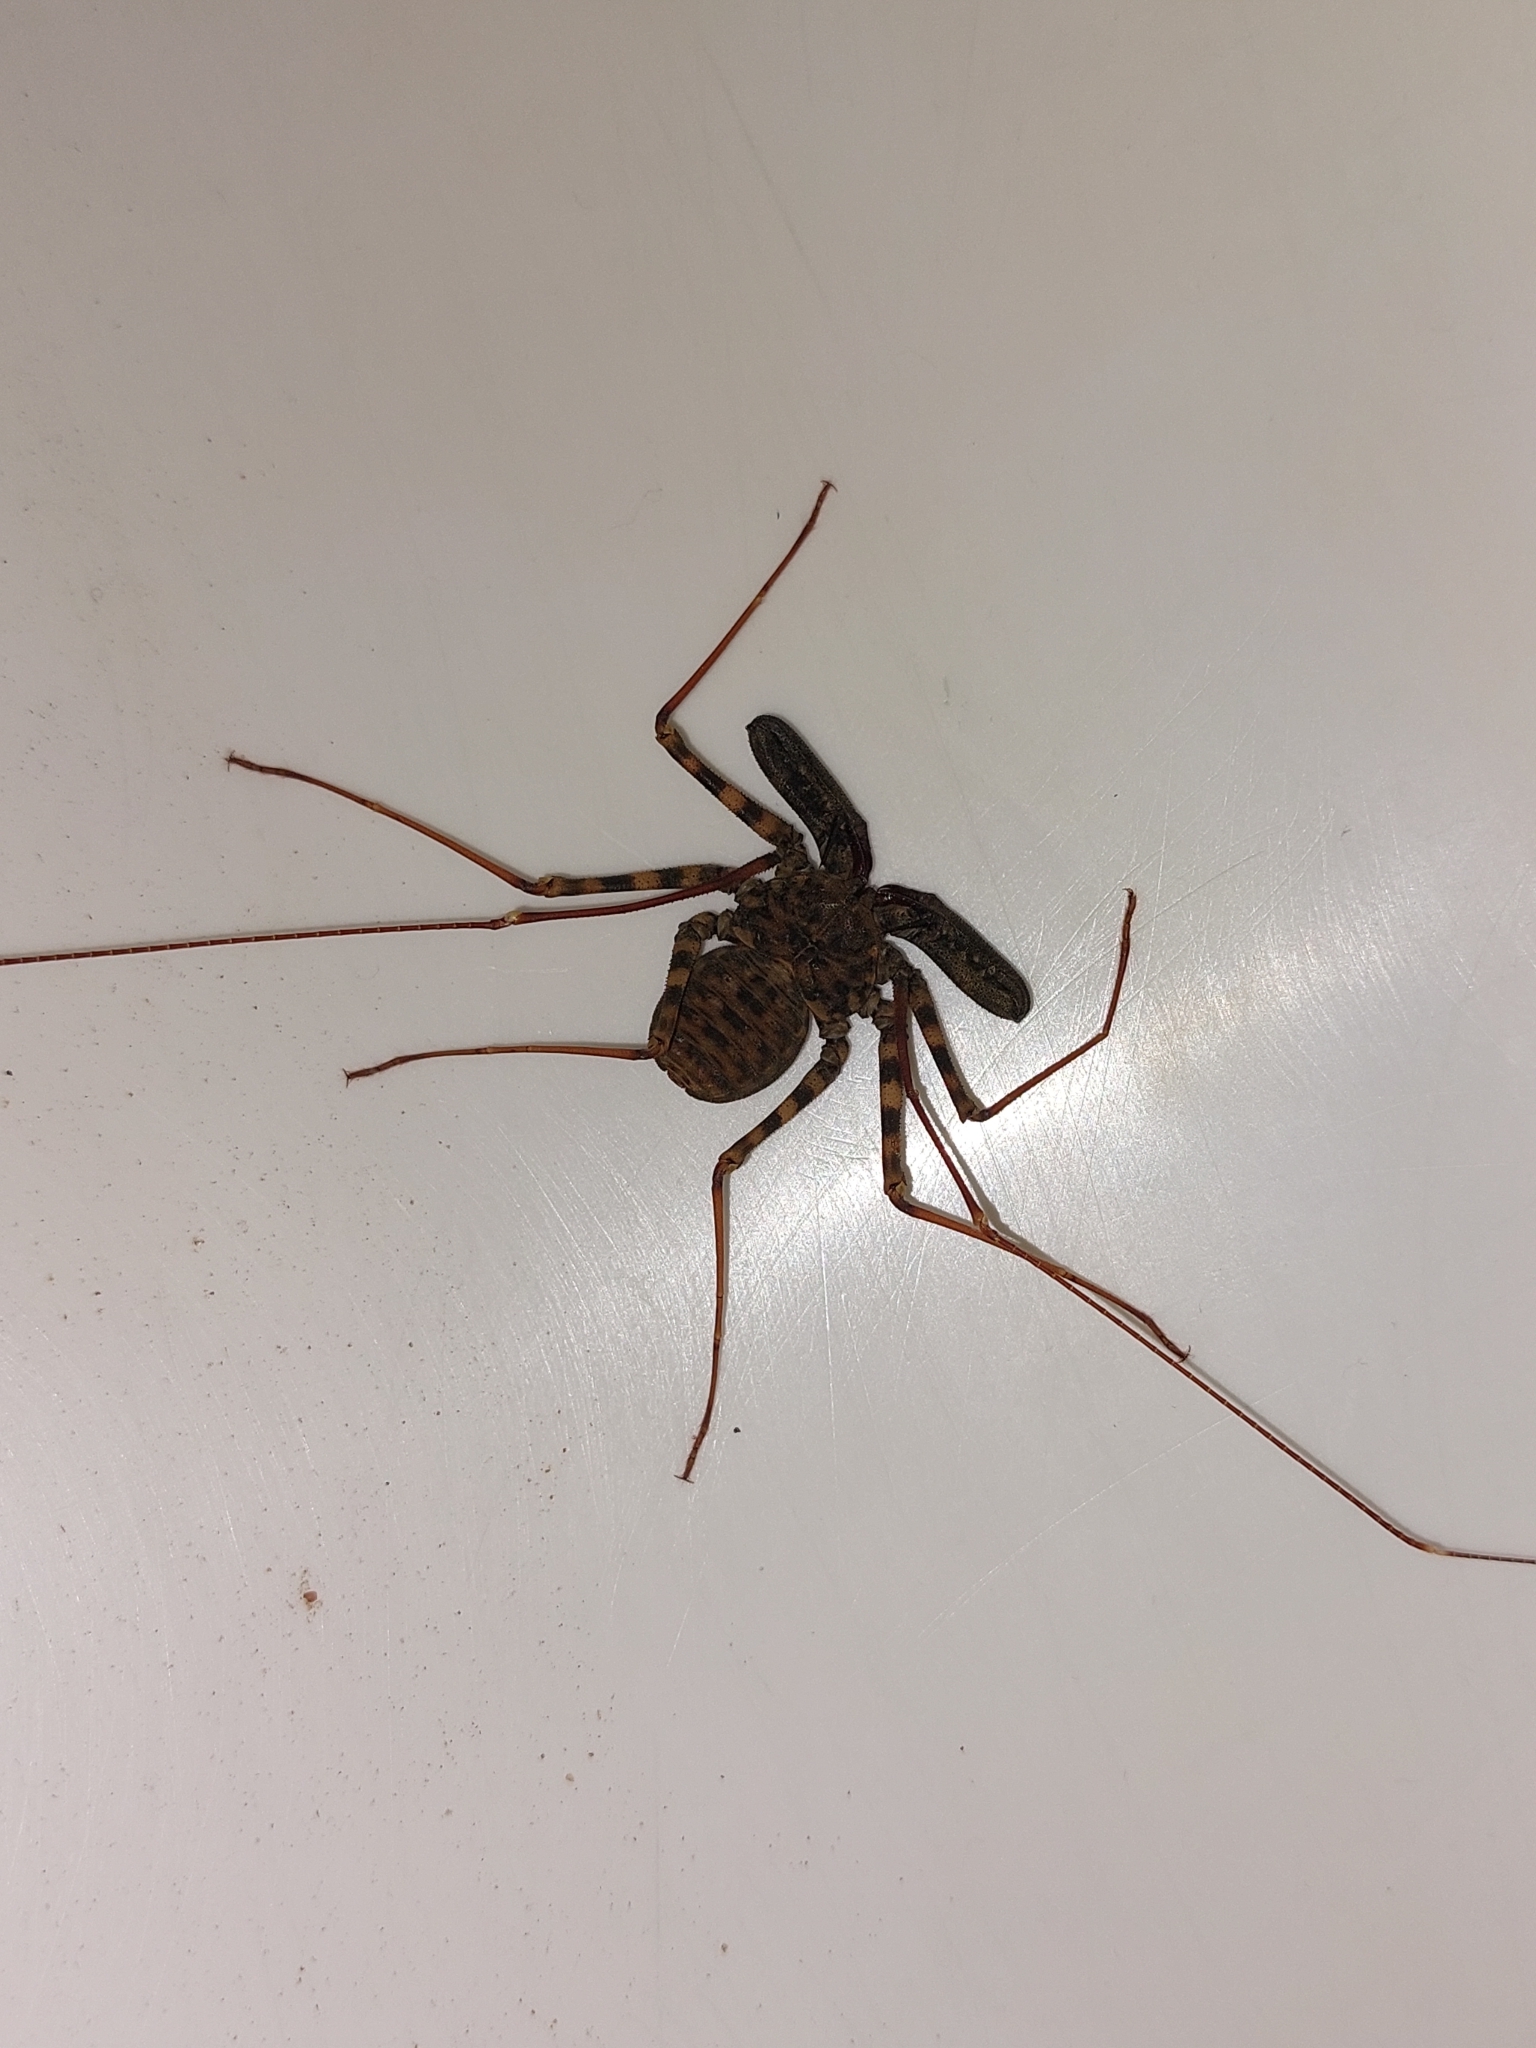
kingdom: Animalia
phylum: Arthropoda
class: Arachnida
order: Amblypygi
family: Phrynichidae
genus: Damon
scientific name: Damon variegatus
